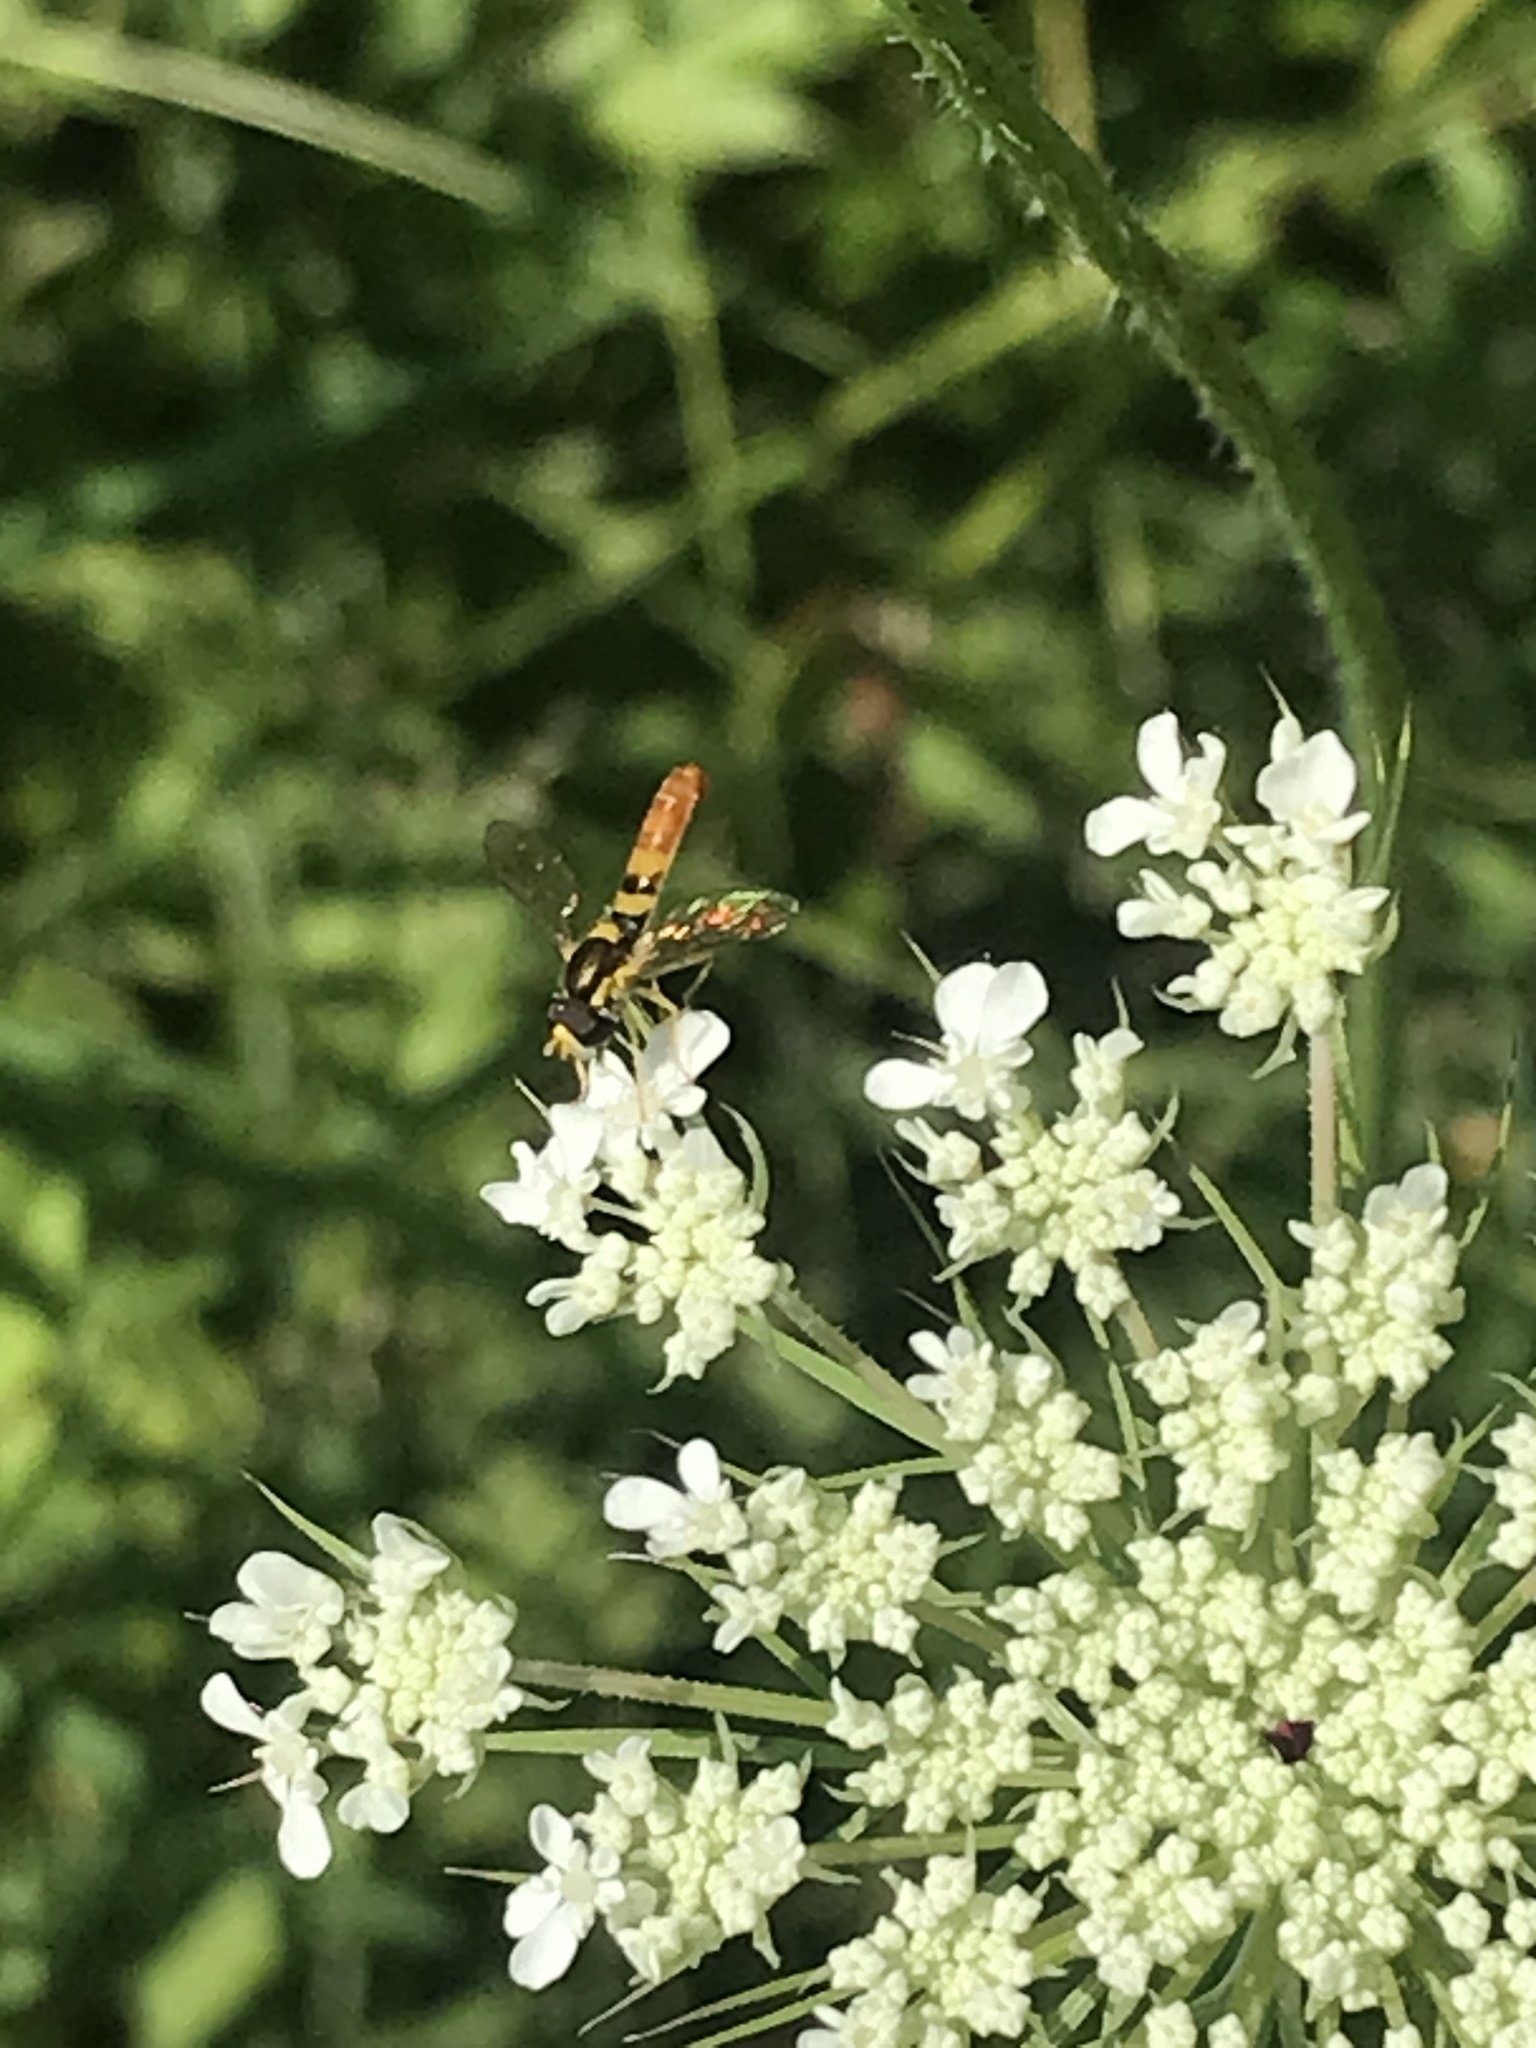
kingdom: Animalia
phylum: Arthropoda
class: Insecta
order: Diptera
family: Syrphidae
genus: Sphaerophoria
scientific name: Sphaerophoria contigua
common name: Tufted globetail
